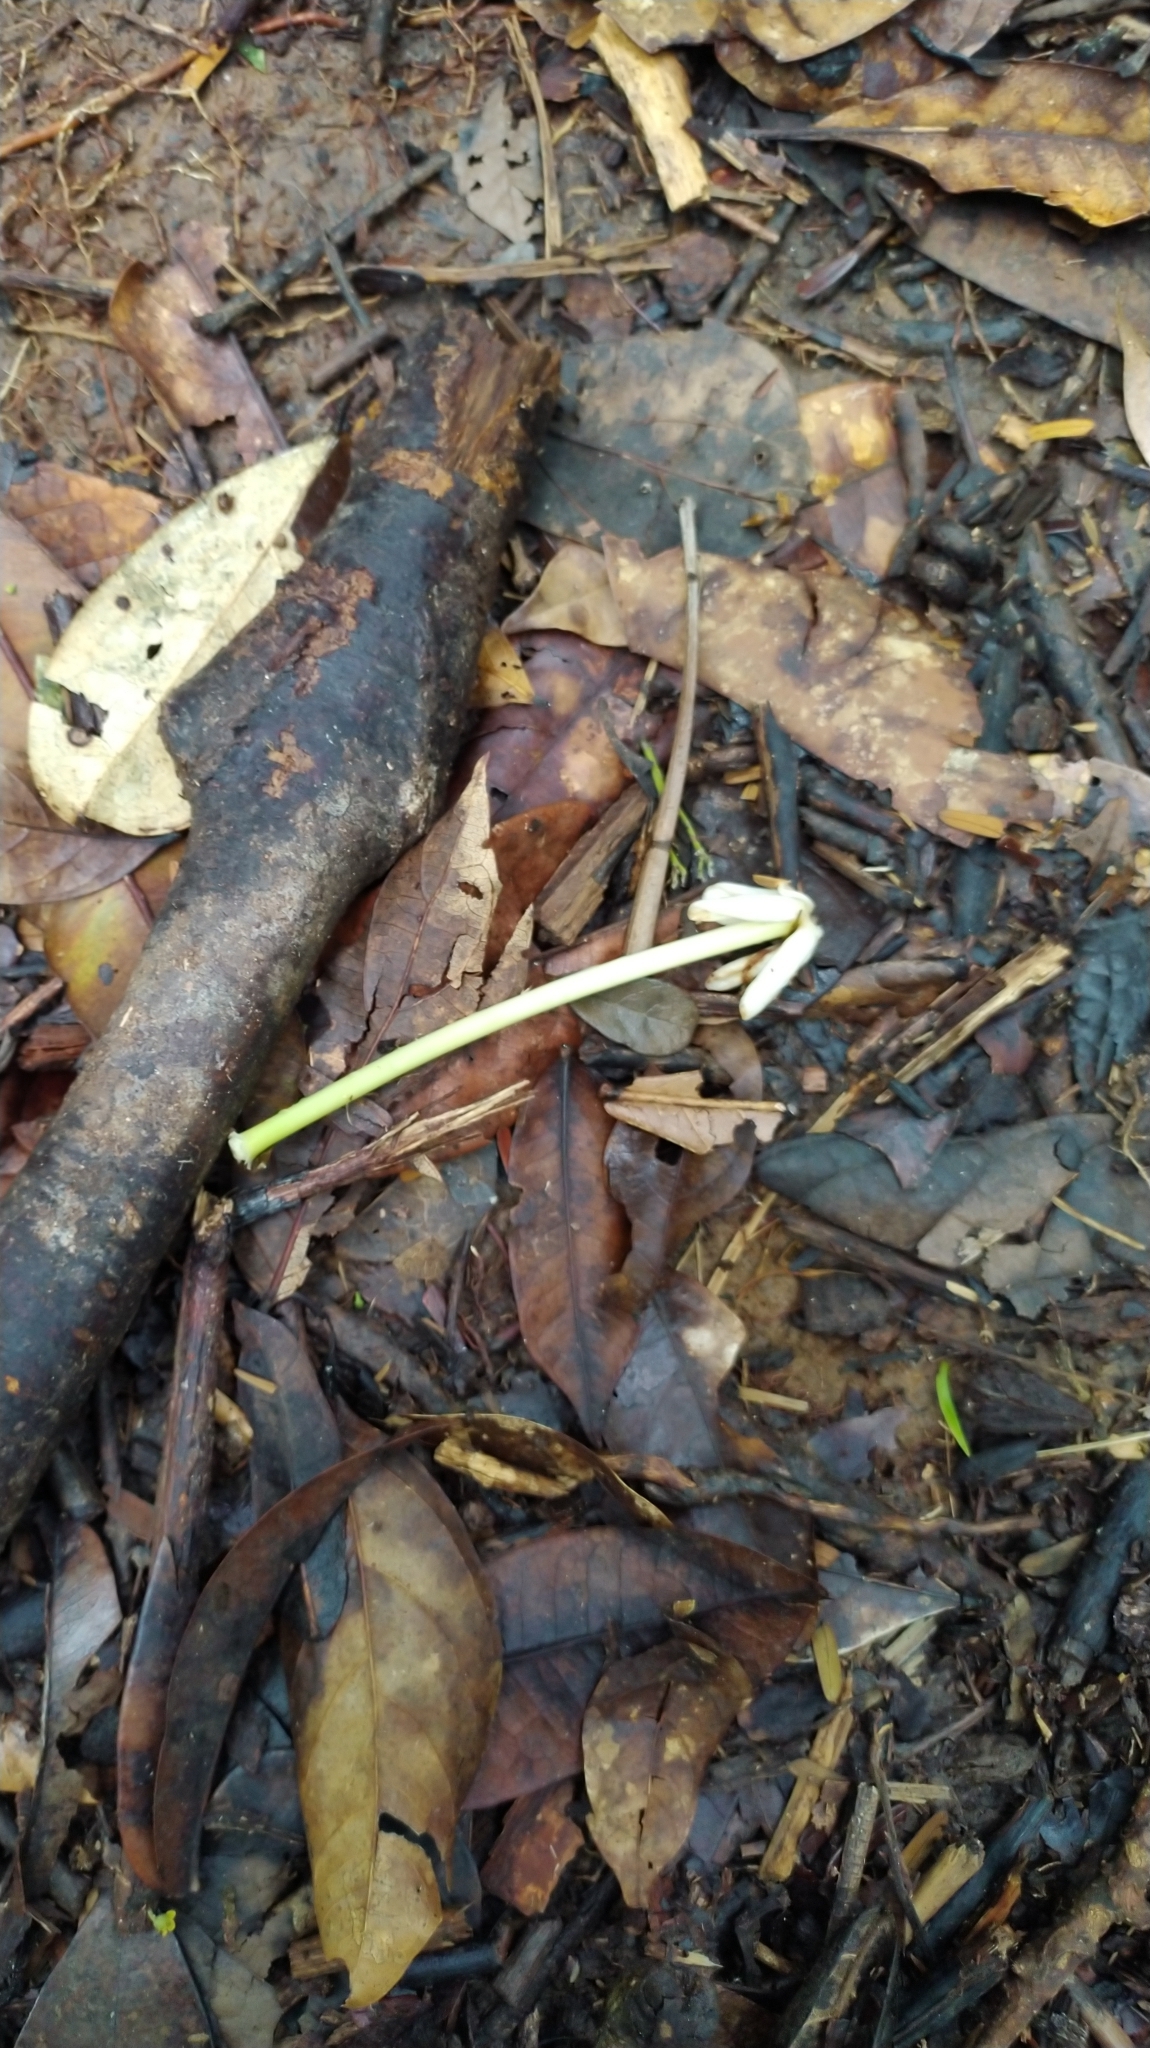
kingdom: Plantae
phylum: Tracheophyta
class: Magnoliopsida
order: Gentianales
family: Rubiaceae
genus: Posoqueria
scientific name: Posoqueria latifolia
